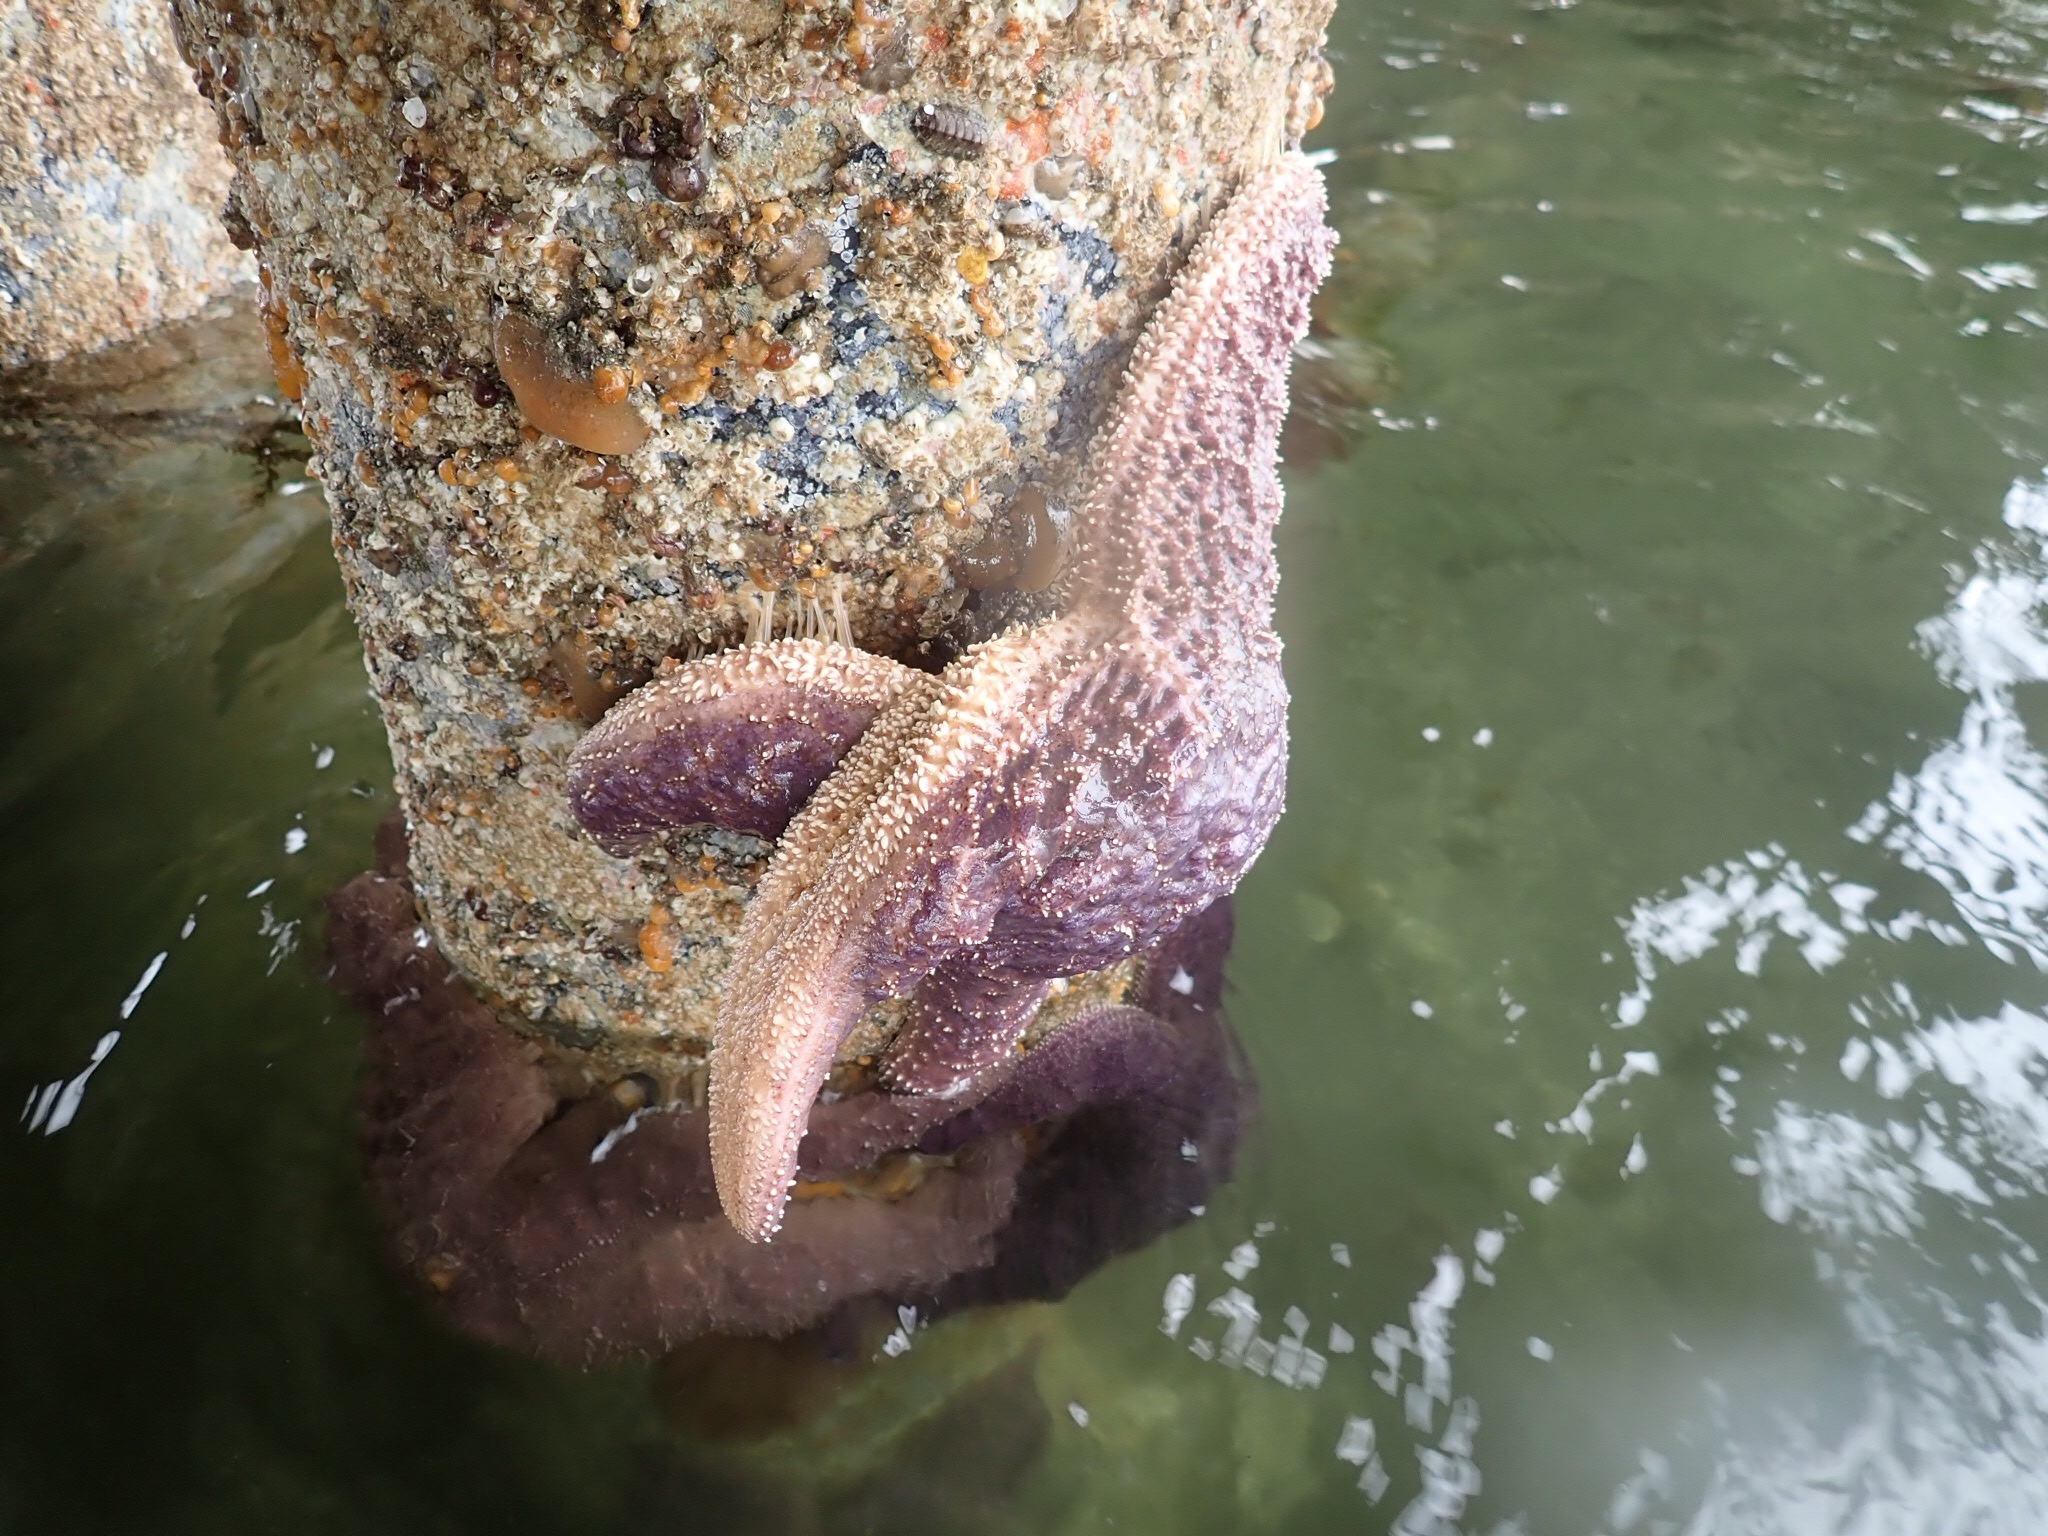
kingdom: Animalia
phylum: Echinodermata
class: Asteroidea
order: Forcipulatida
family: Asteriidae
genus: Pisaster
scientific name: Pisaster ochraceus
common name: Ochre stars
